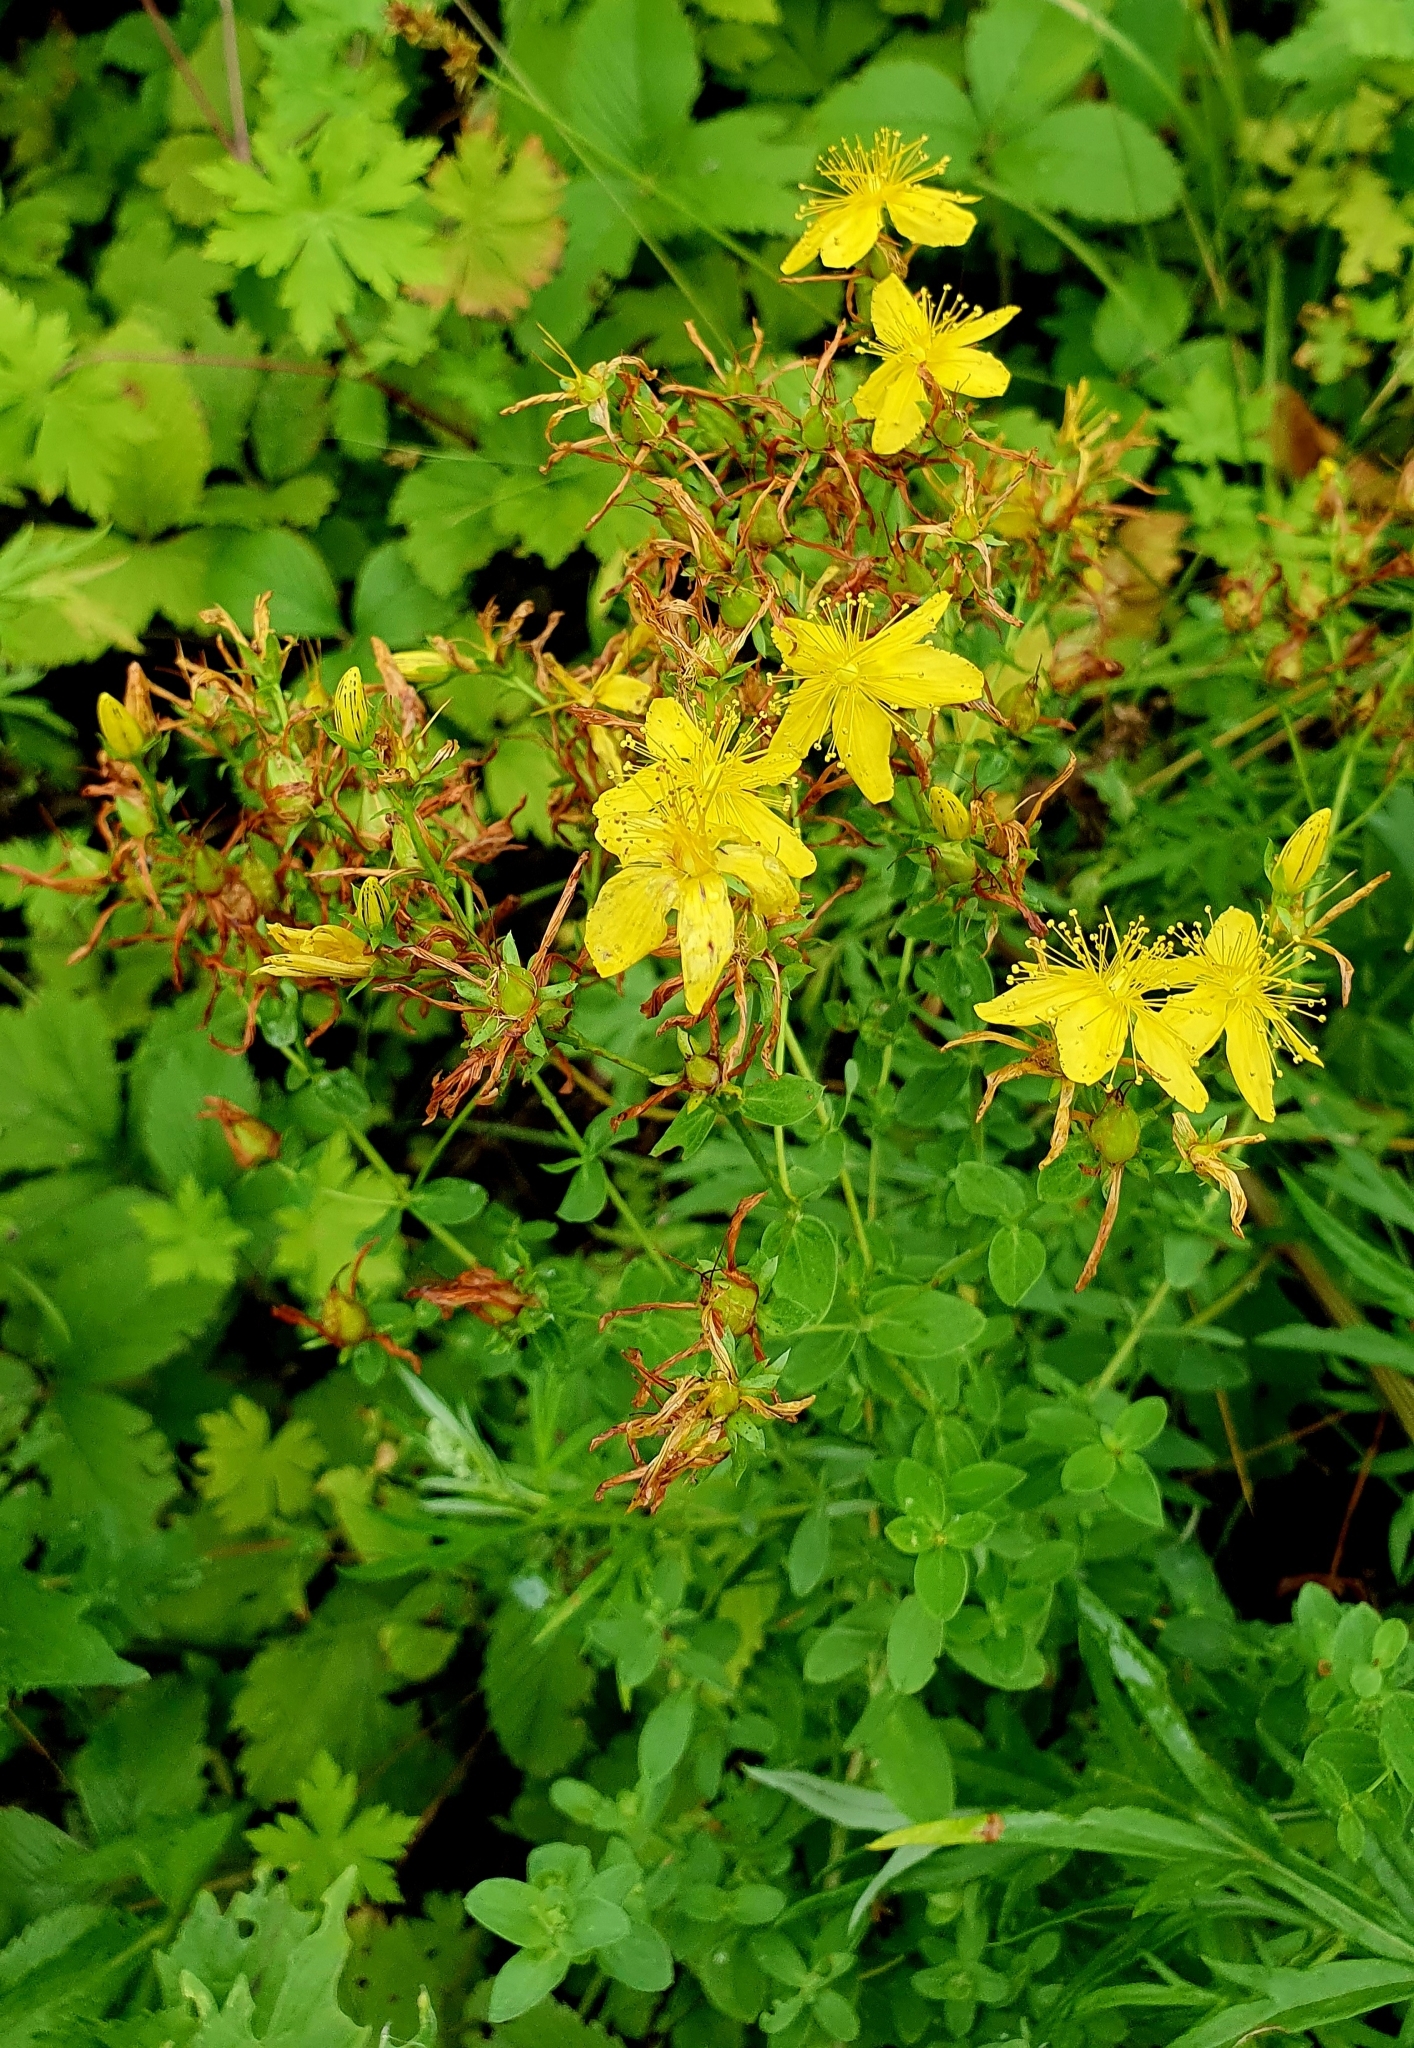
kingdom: Plantae
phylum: Tracheophyta
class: Magnoliopsida
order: Malpighiales
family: Hypericaceae
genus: Hypericum
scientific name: Hypericum perforatum
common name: Common st. johnswort
